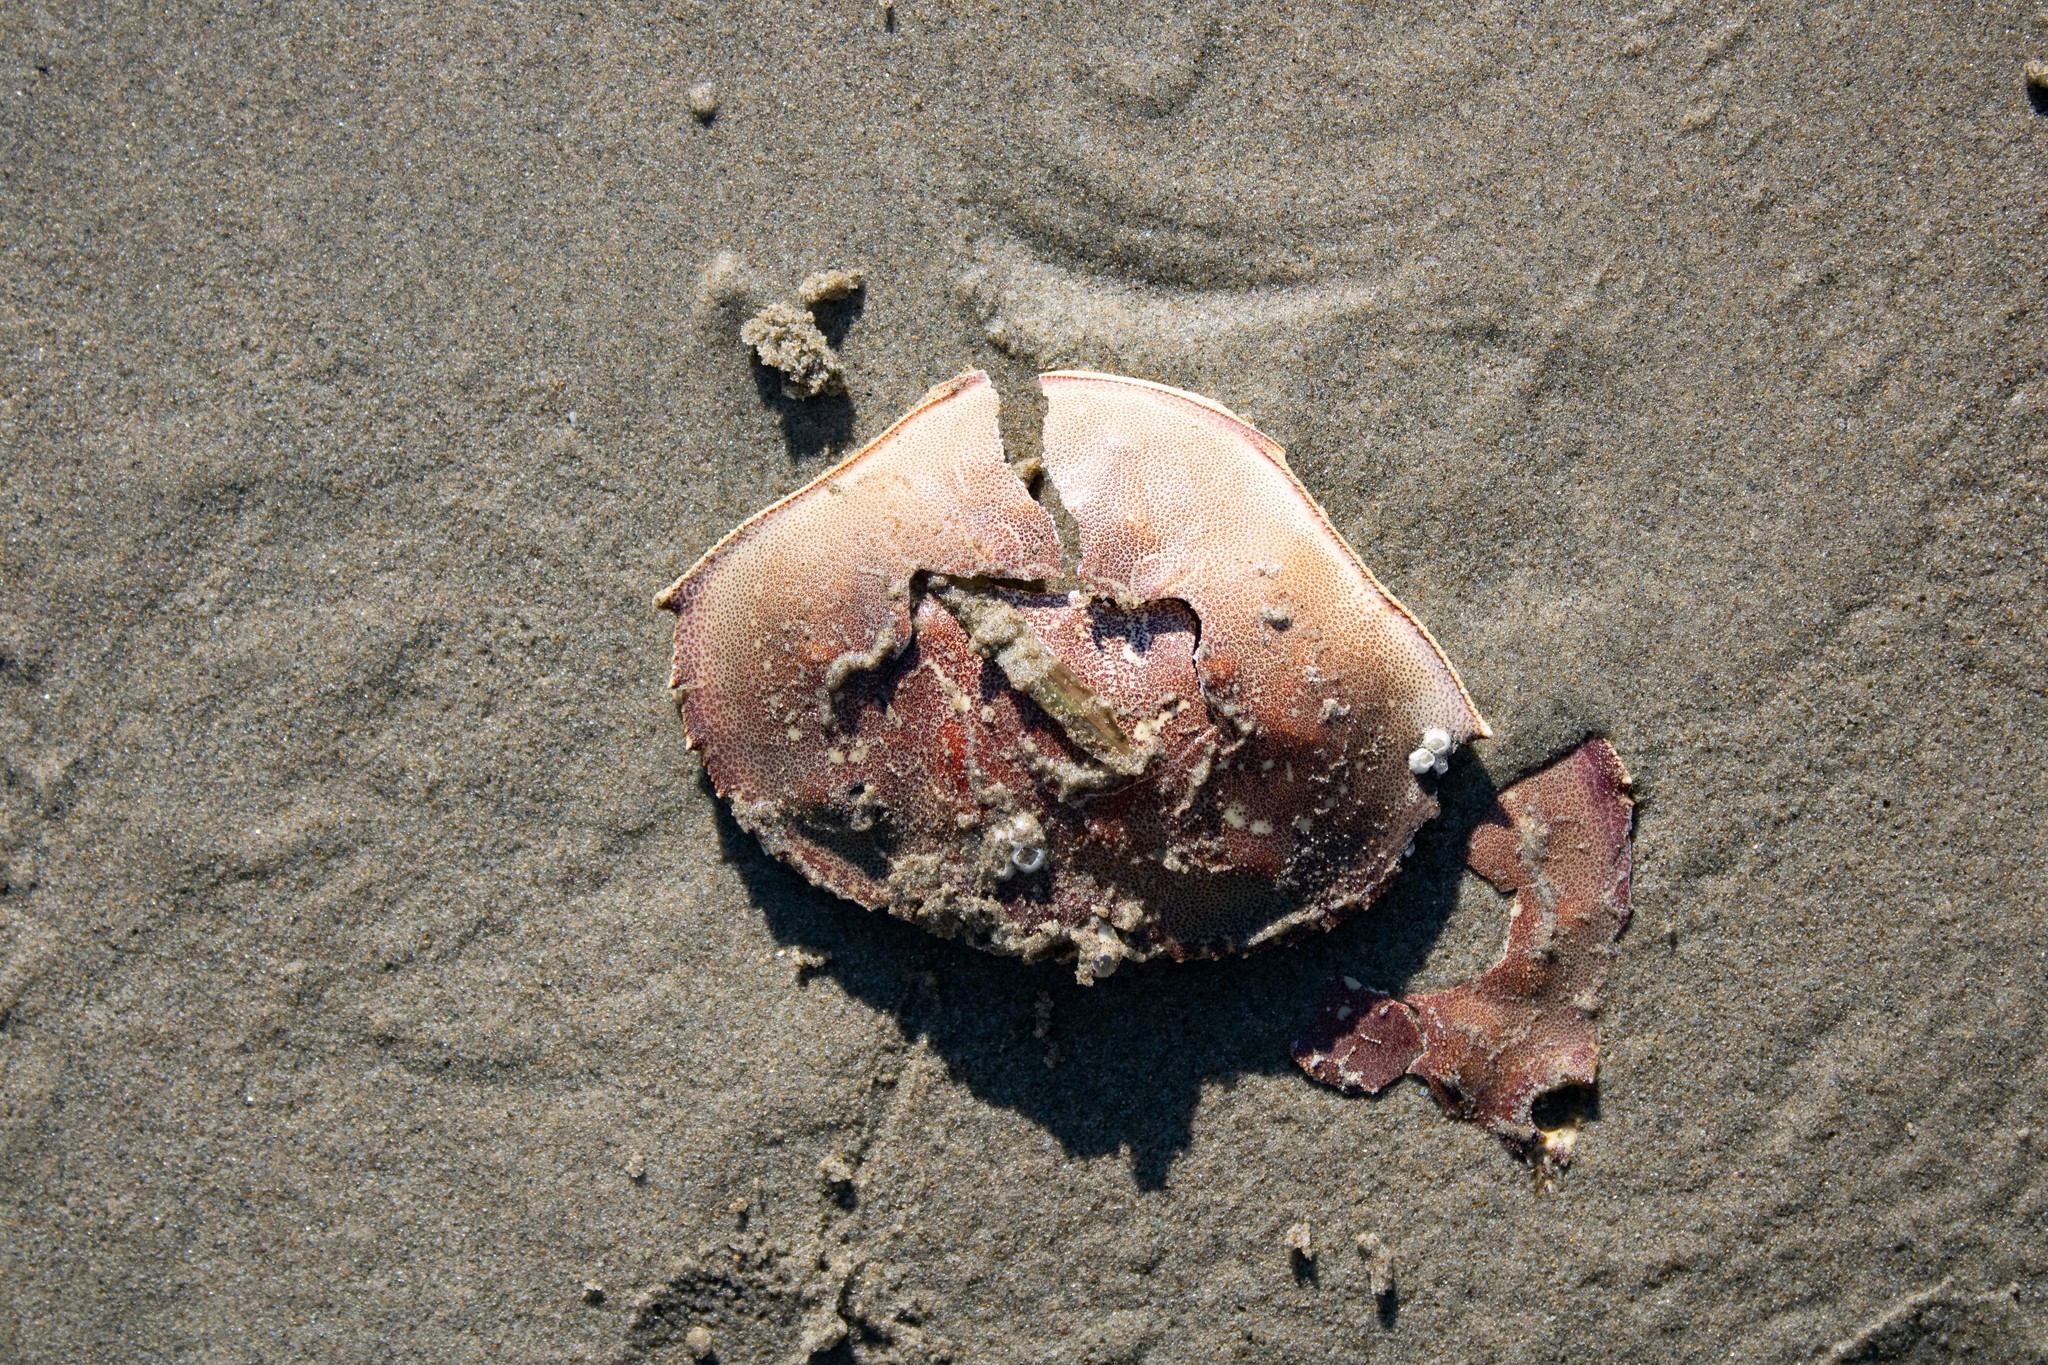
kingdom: Animalia
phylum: Arthropoda
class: Malacostraca
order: Decapoda
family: Cancridae
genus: Metacarcinus
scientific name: Metacarcinus magister
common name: Californian crab
